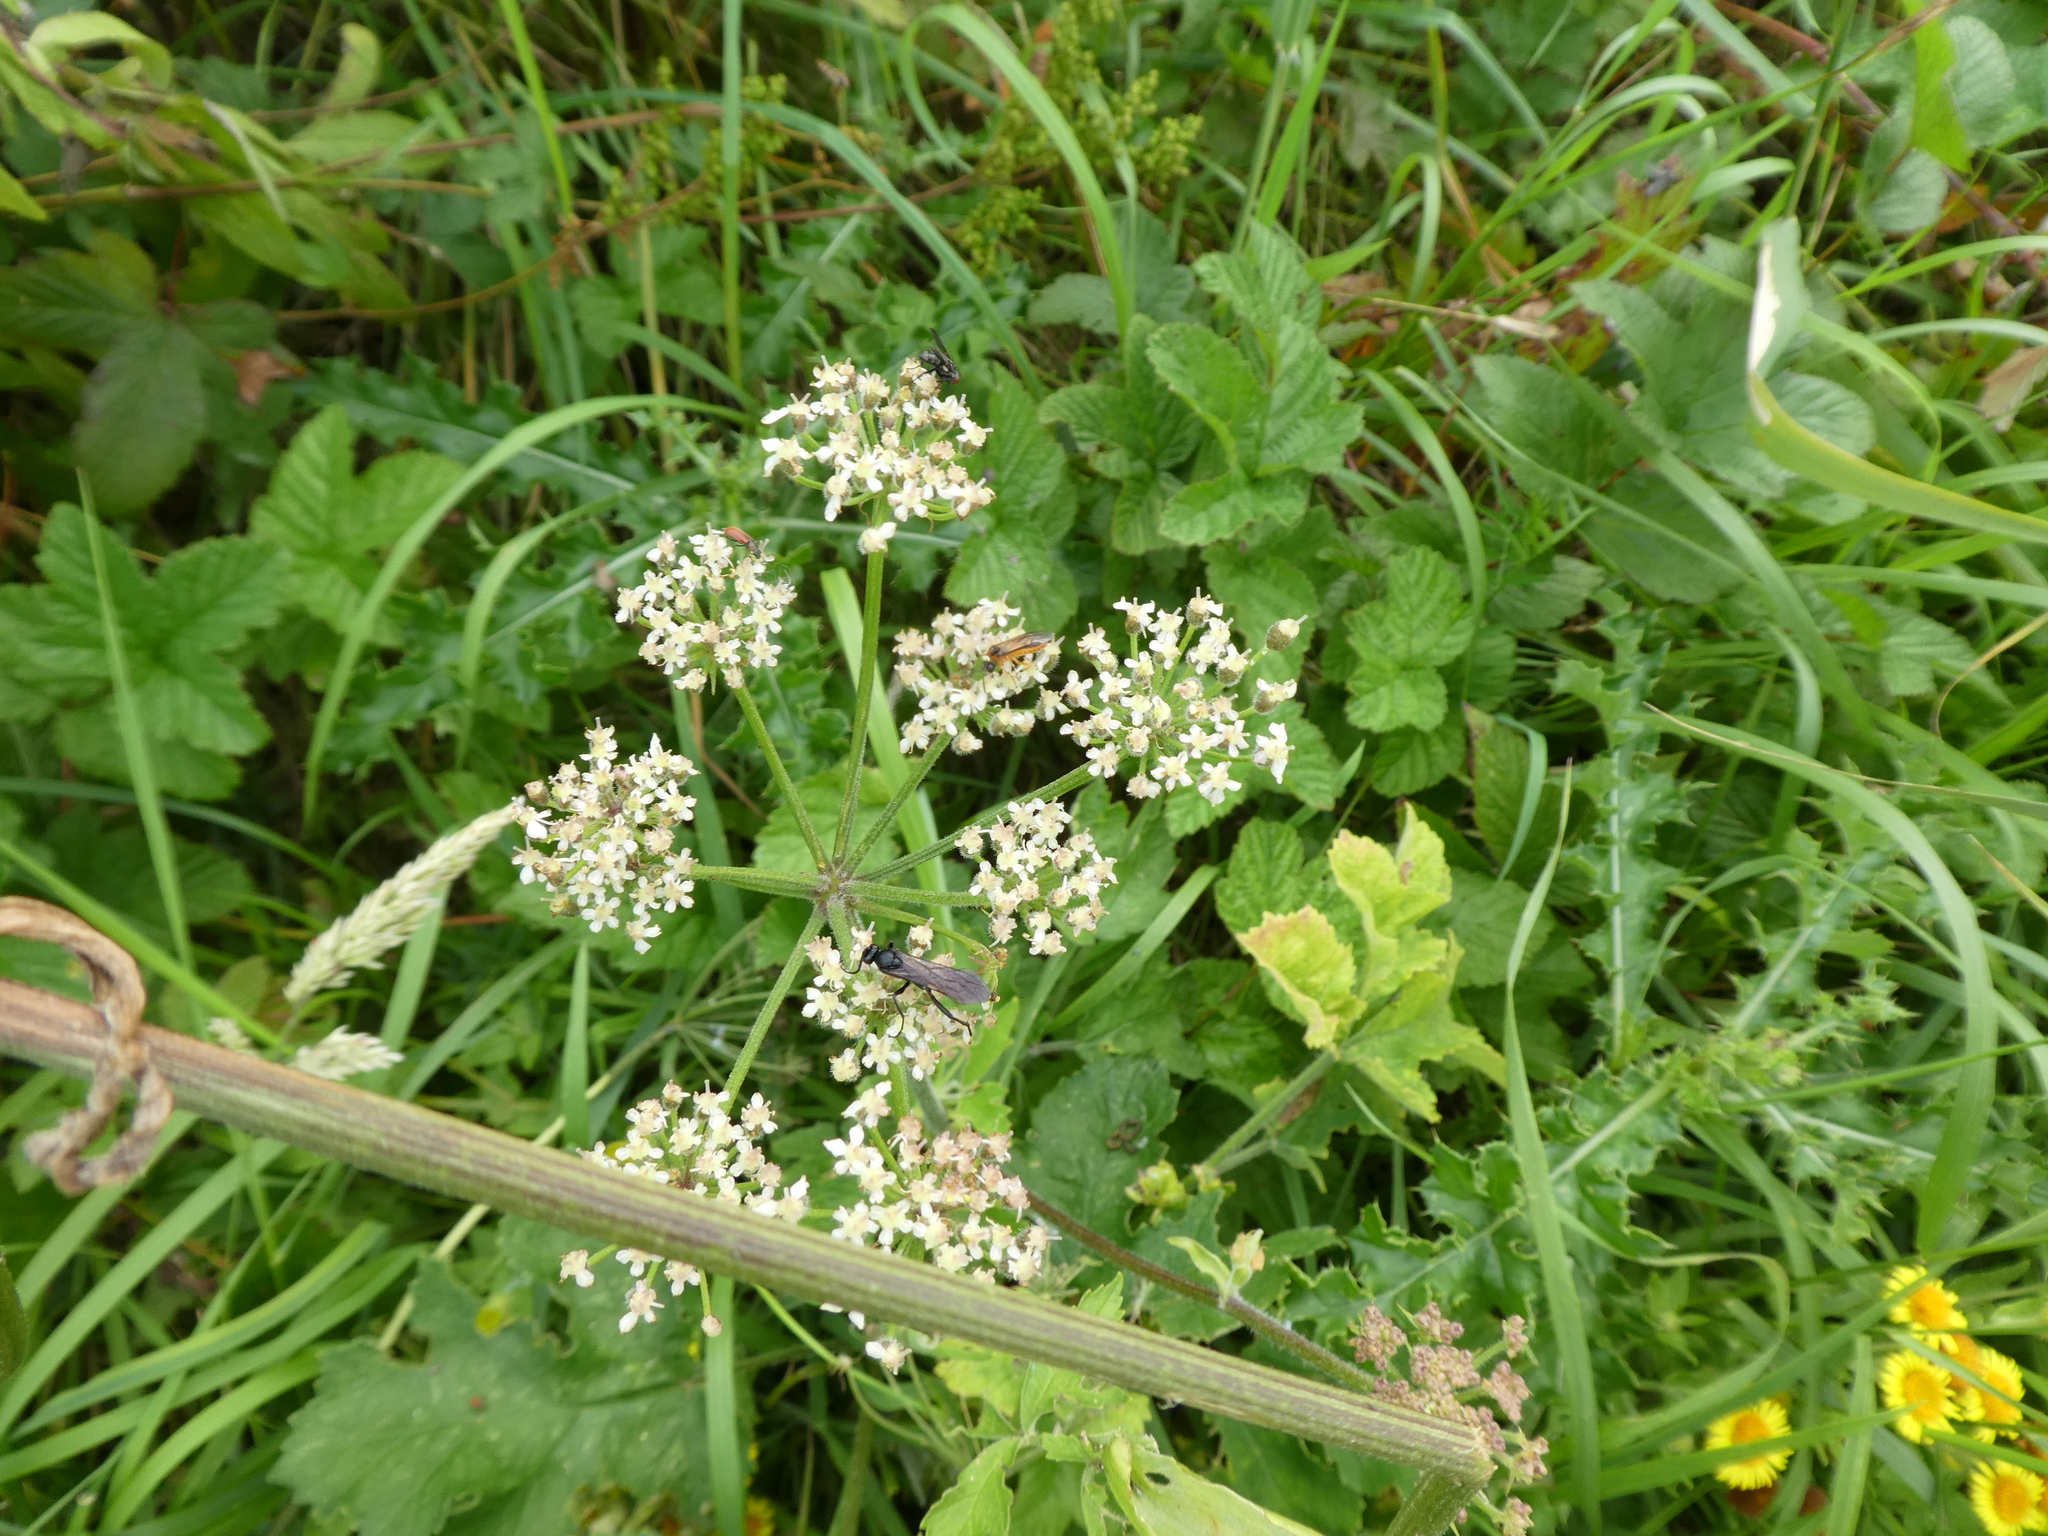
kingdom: Plantae
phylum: Tracheophyta
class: Magnoliopsida
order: Apiales
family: Apiaceae
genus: Heracleum
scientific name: Heracleum sphondylium
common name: Hogweed
